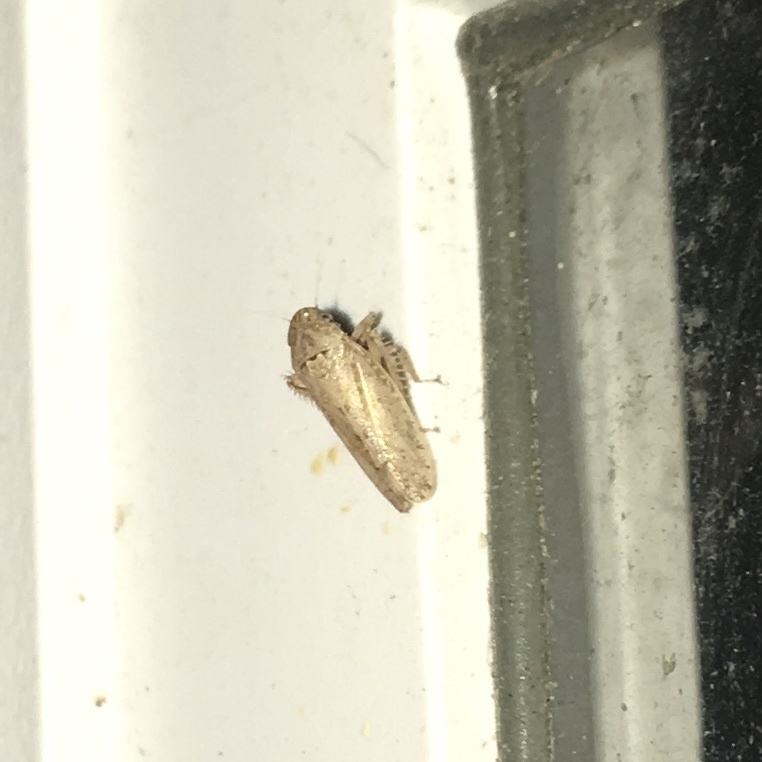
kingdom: Animalia
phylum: Arthropoda
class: Insecta
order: Hemiptera
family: Cicadellidae
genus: Curtara
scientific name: Curtara insularis
